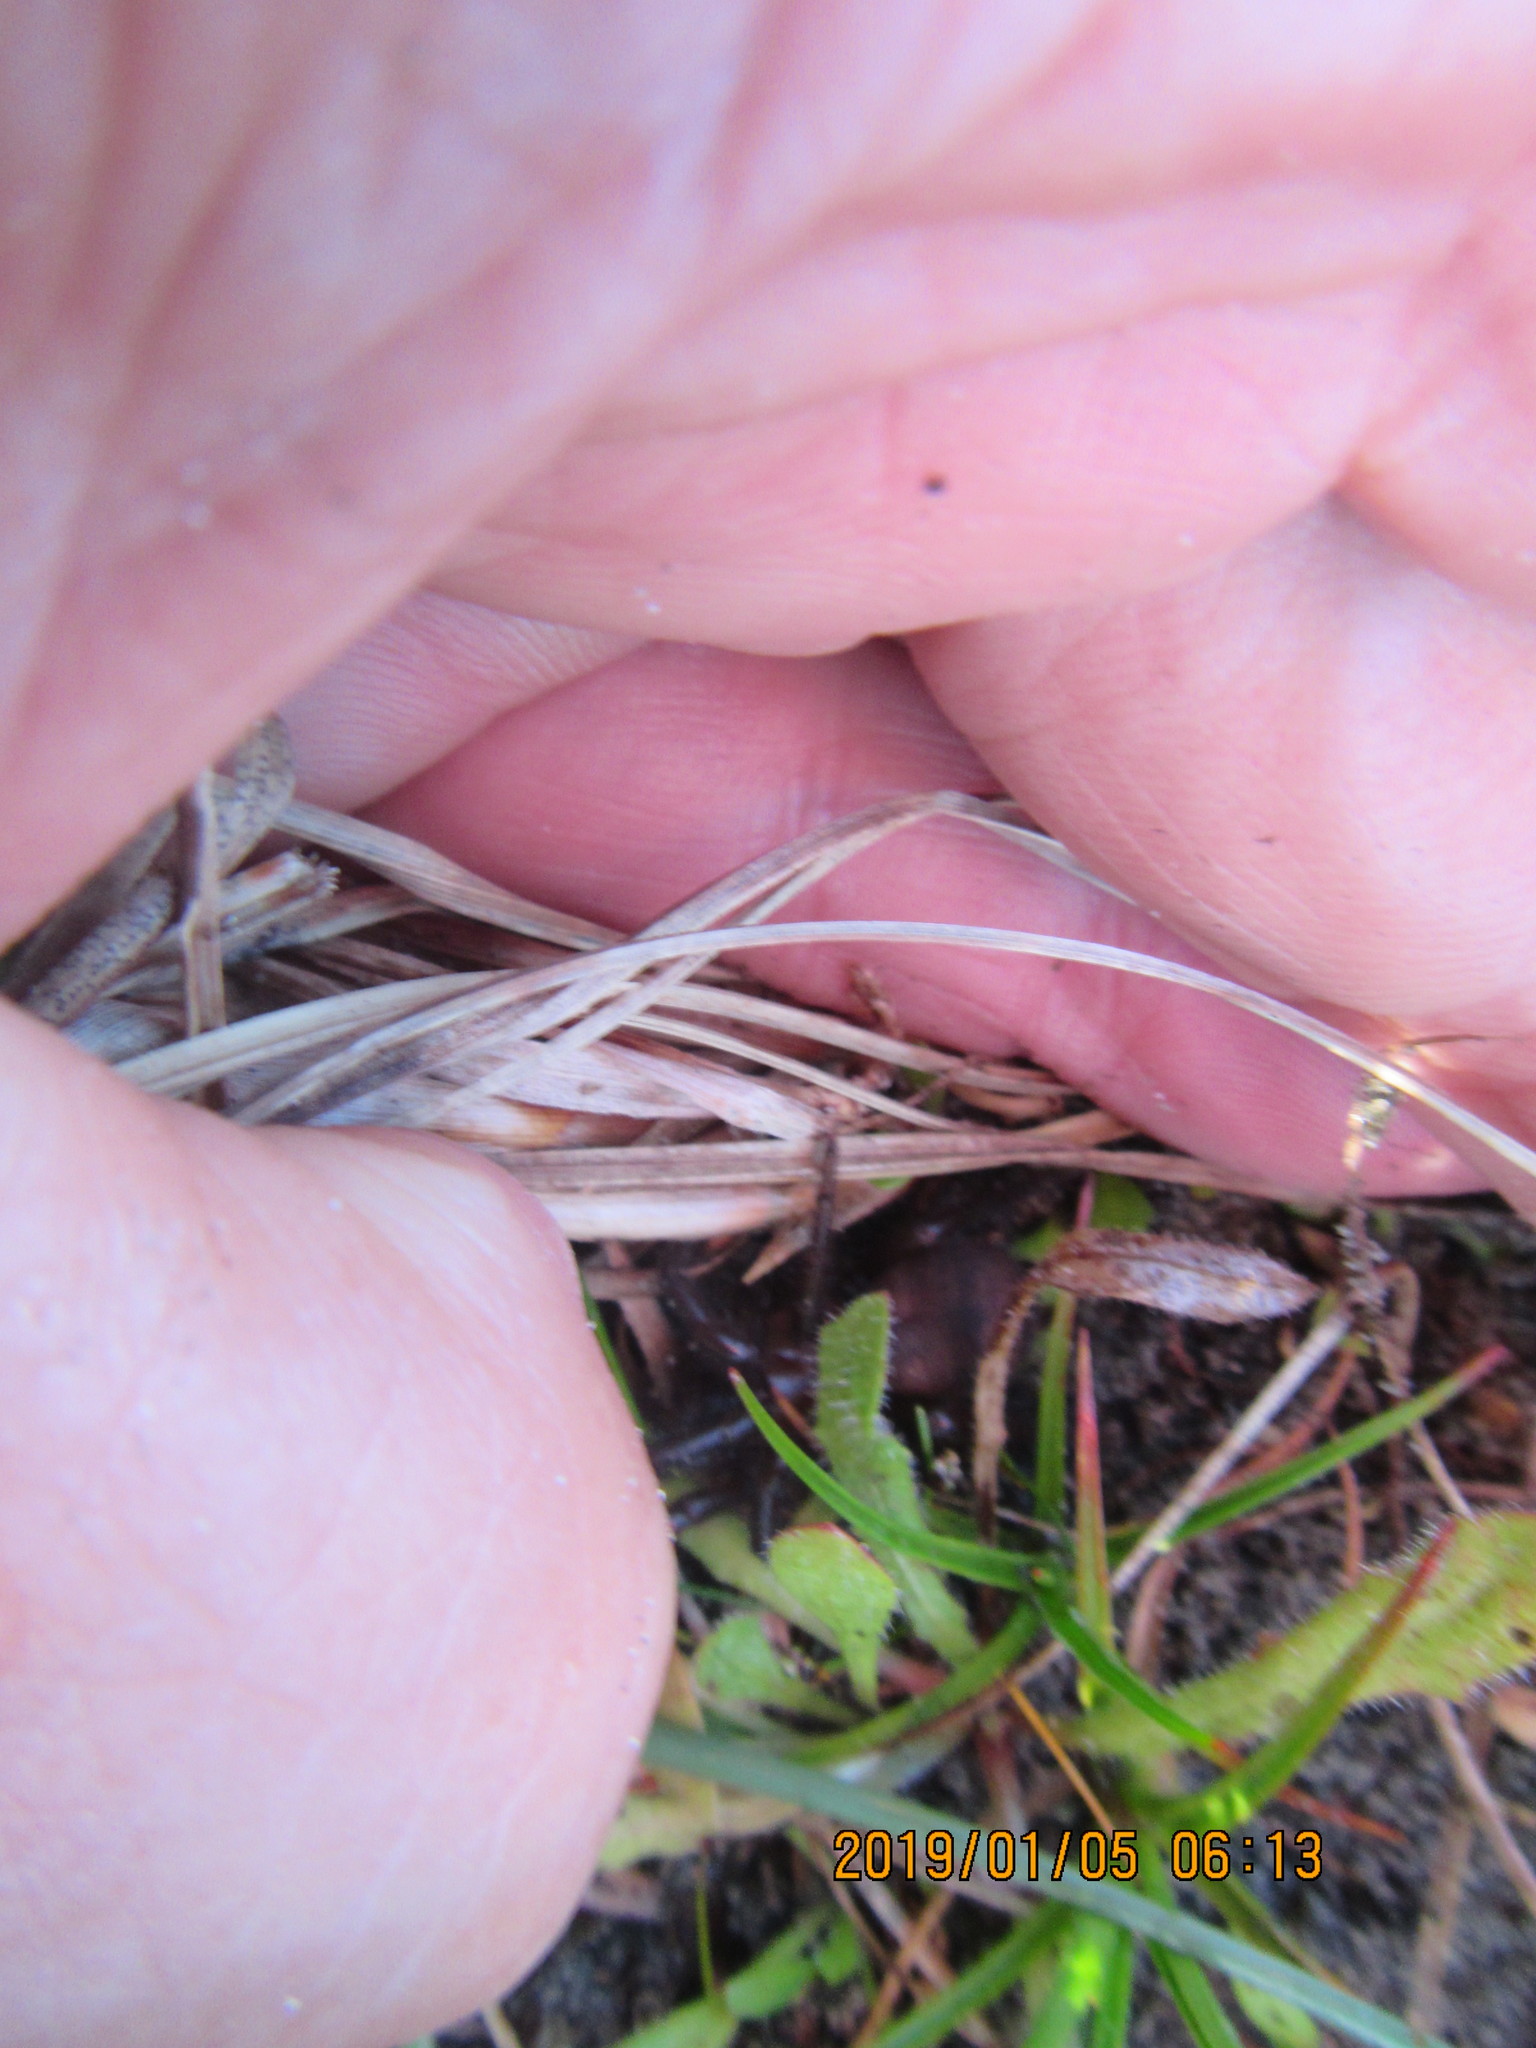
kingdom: Animalia
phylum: Arthropoda
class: Arachnida
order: Araneae
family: Porrhothelidae
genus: Porrhothele
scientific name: Porrhothele antipodiana
